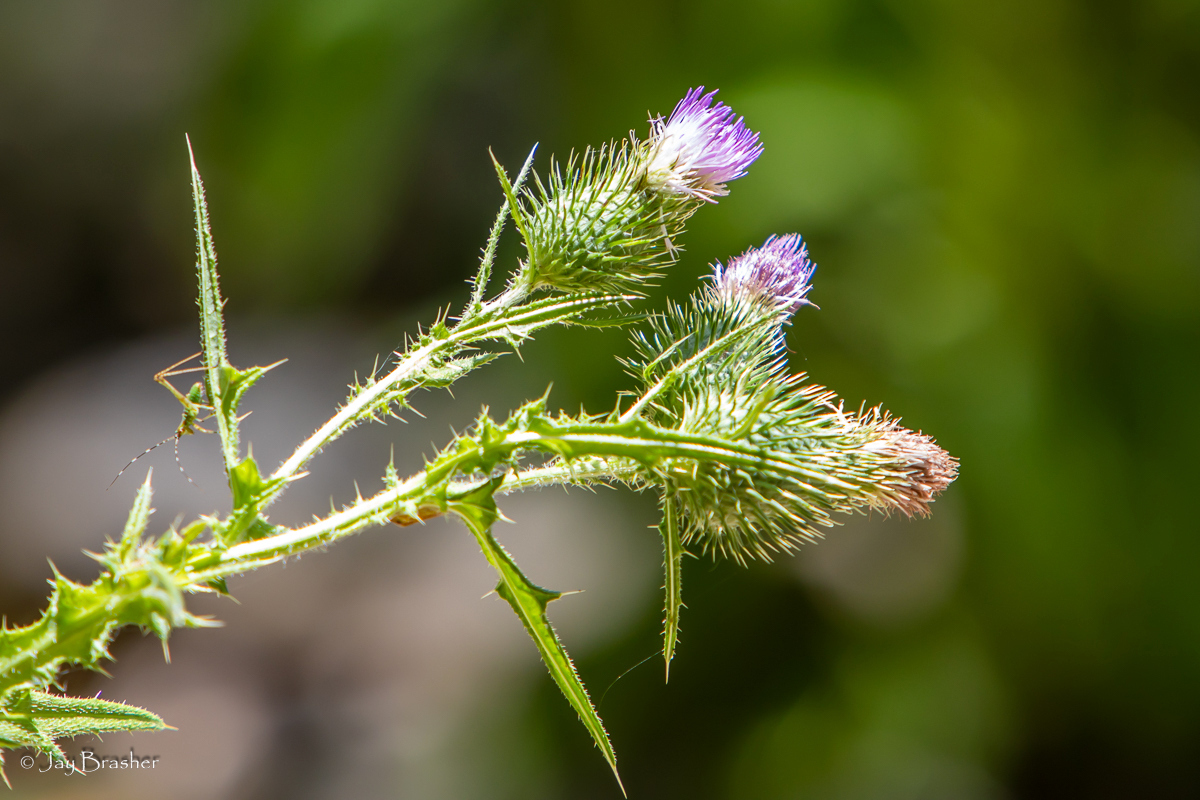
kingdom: Plantae
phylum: Tracheophyta
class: Magnoliopsida
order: Asterales
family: Asteraceae
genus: Cirsium
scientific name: Cirsium vulgare
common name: Bull thistle
